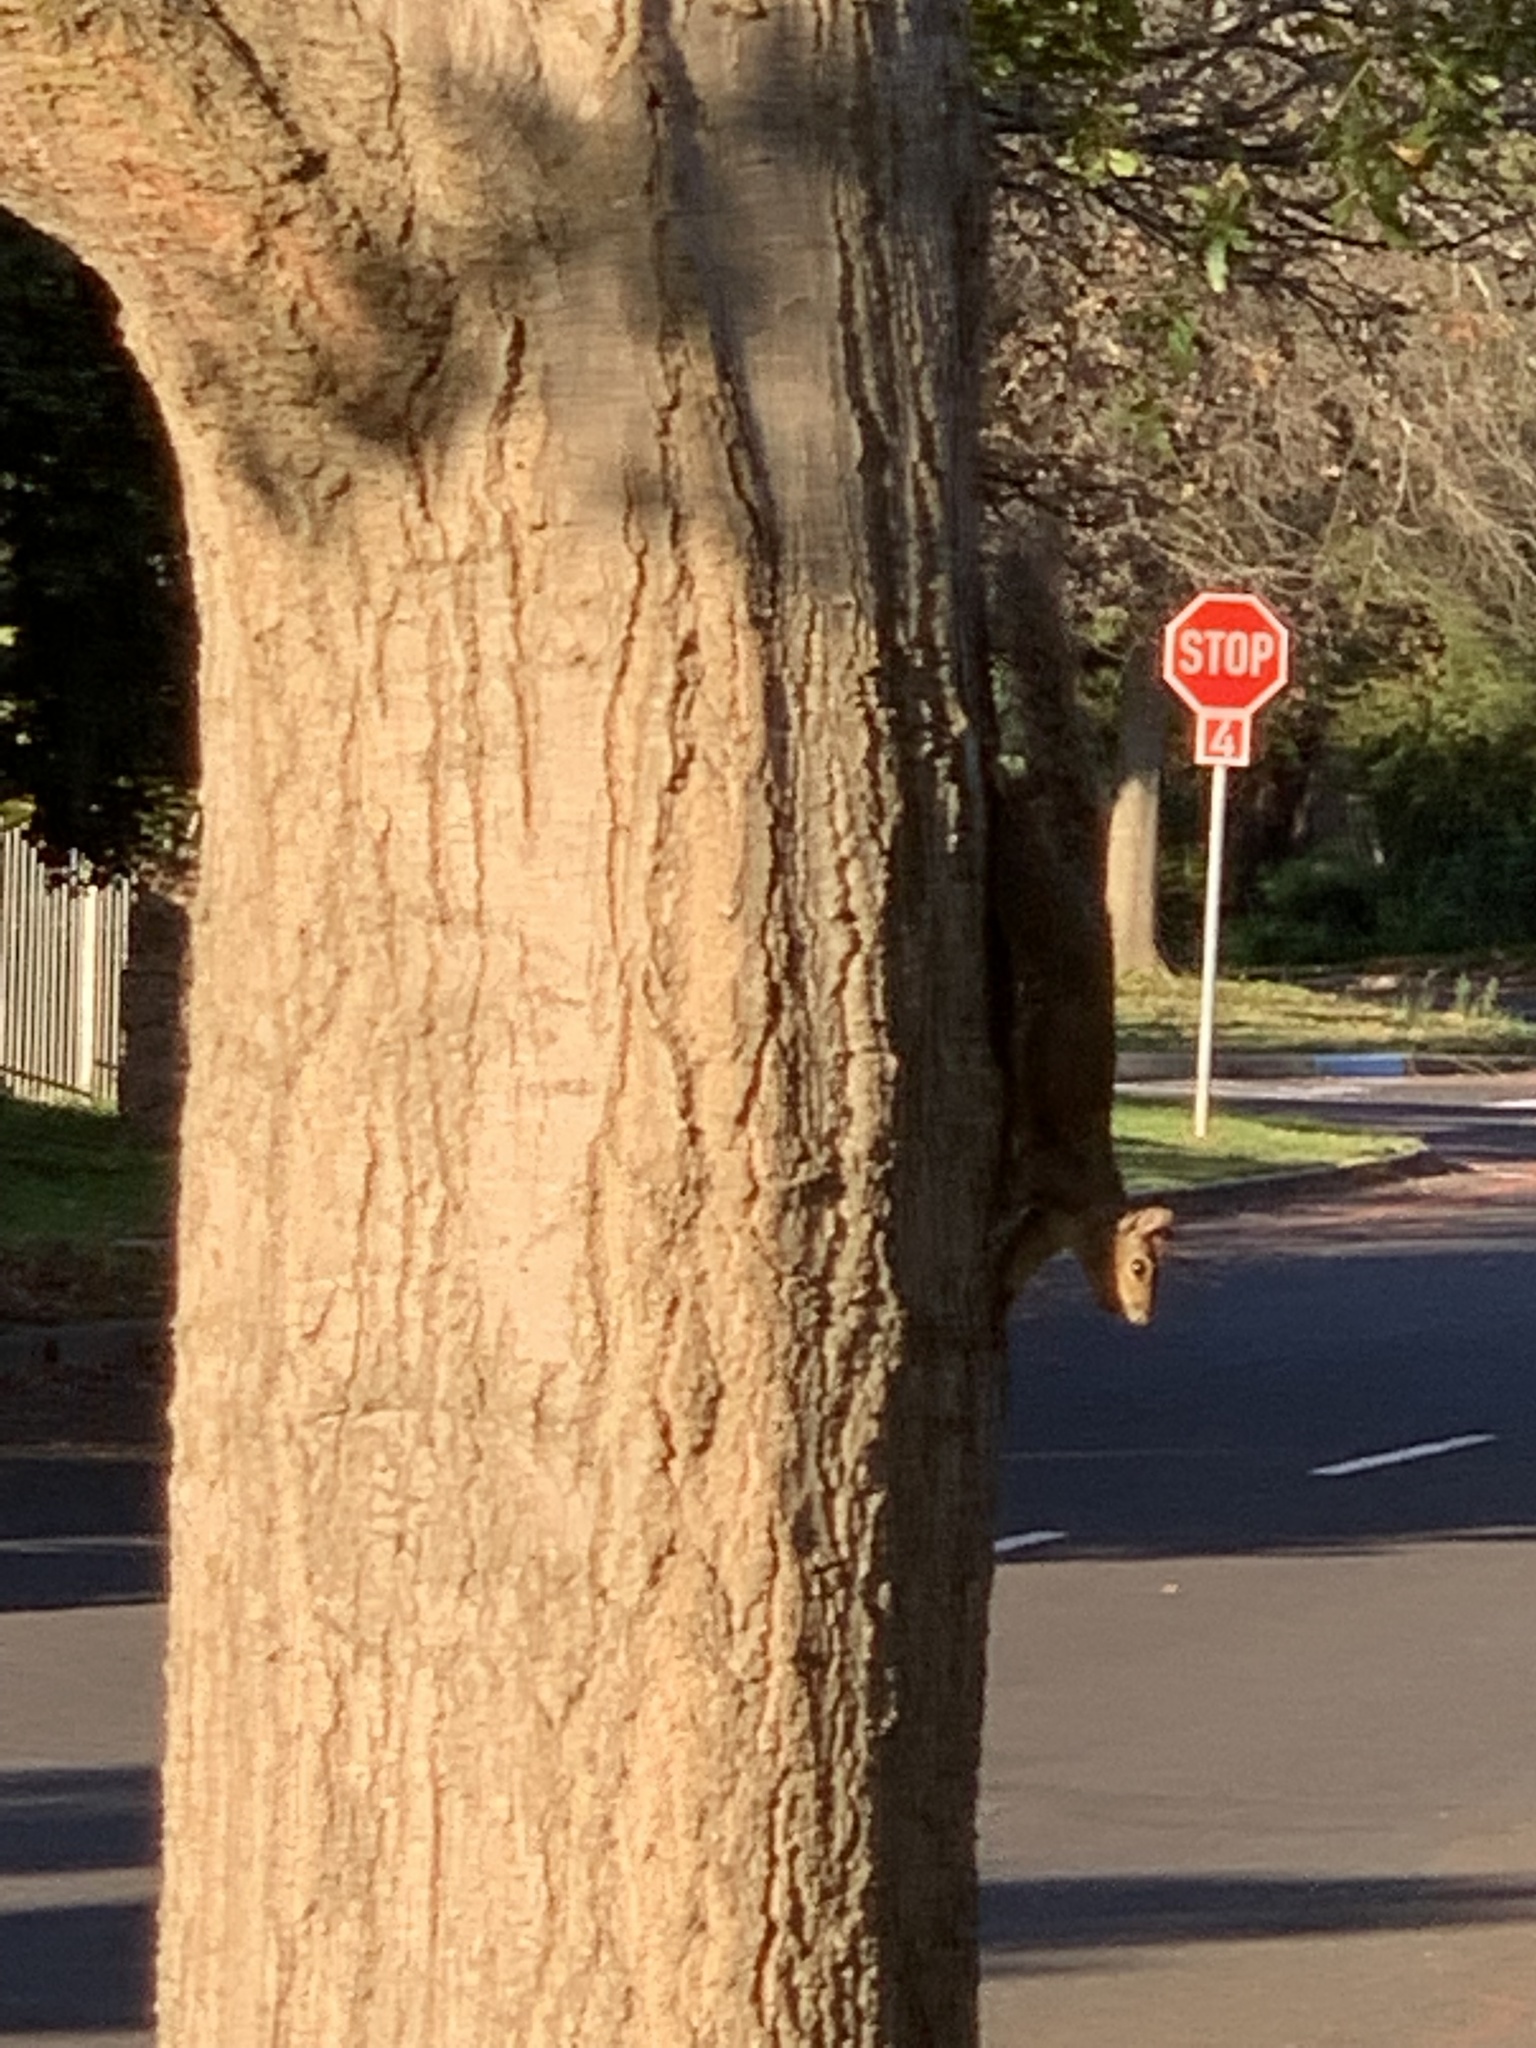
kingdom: Animalia
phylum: Chordata
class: Mammalia
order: Rodentia
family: Sciuridae
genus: Sciurus
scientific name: Sciurus carolinensis
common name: Eastern gray squirrel
